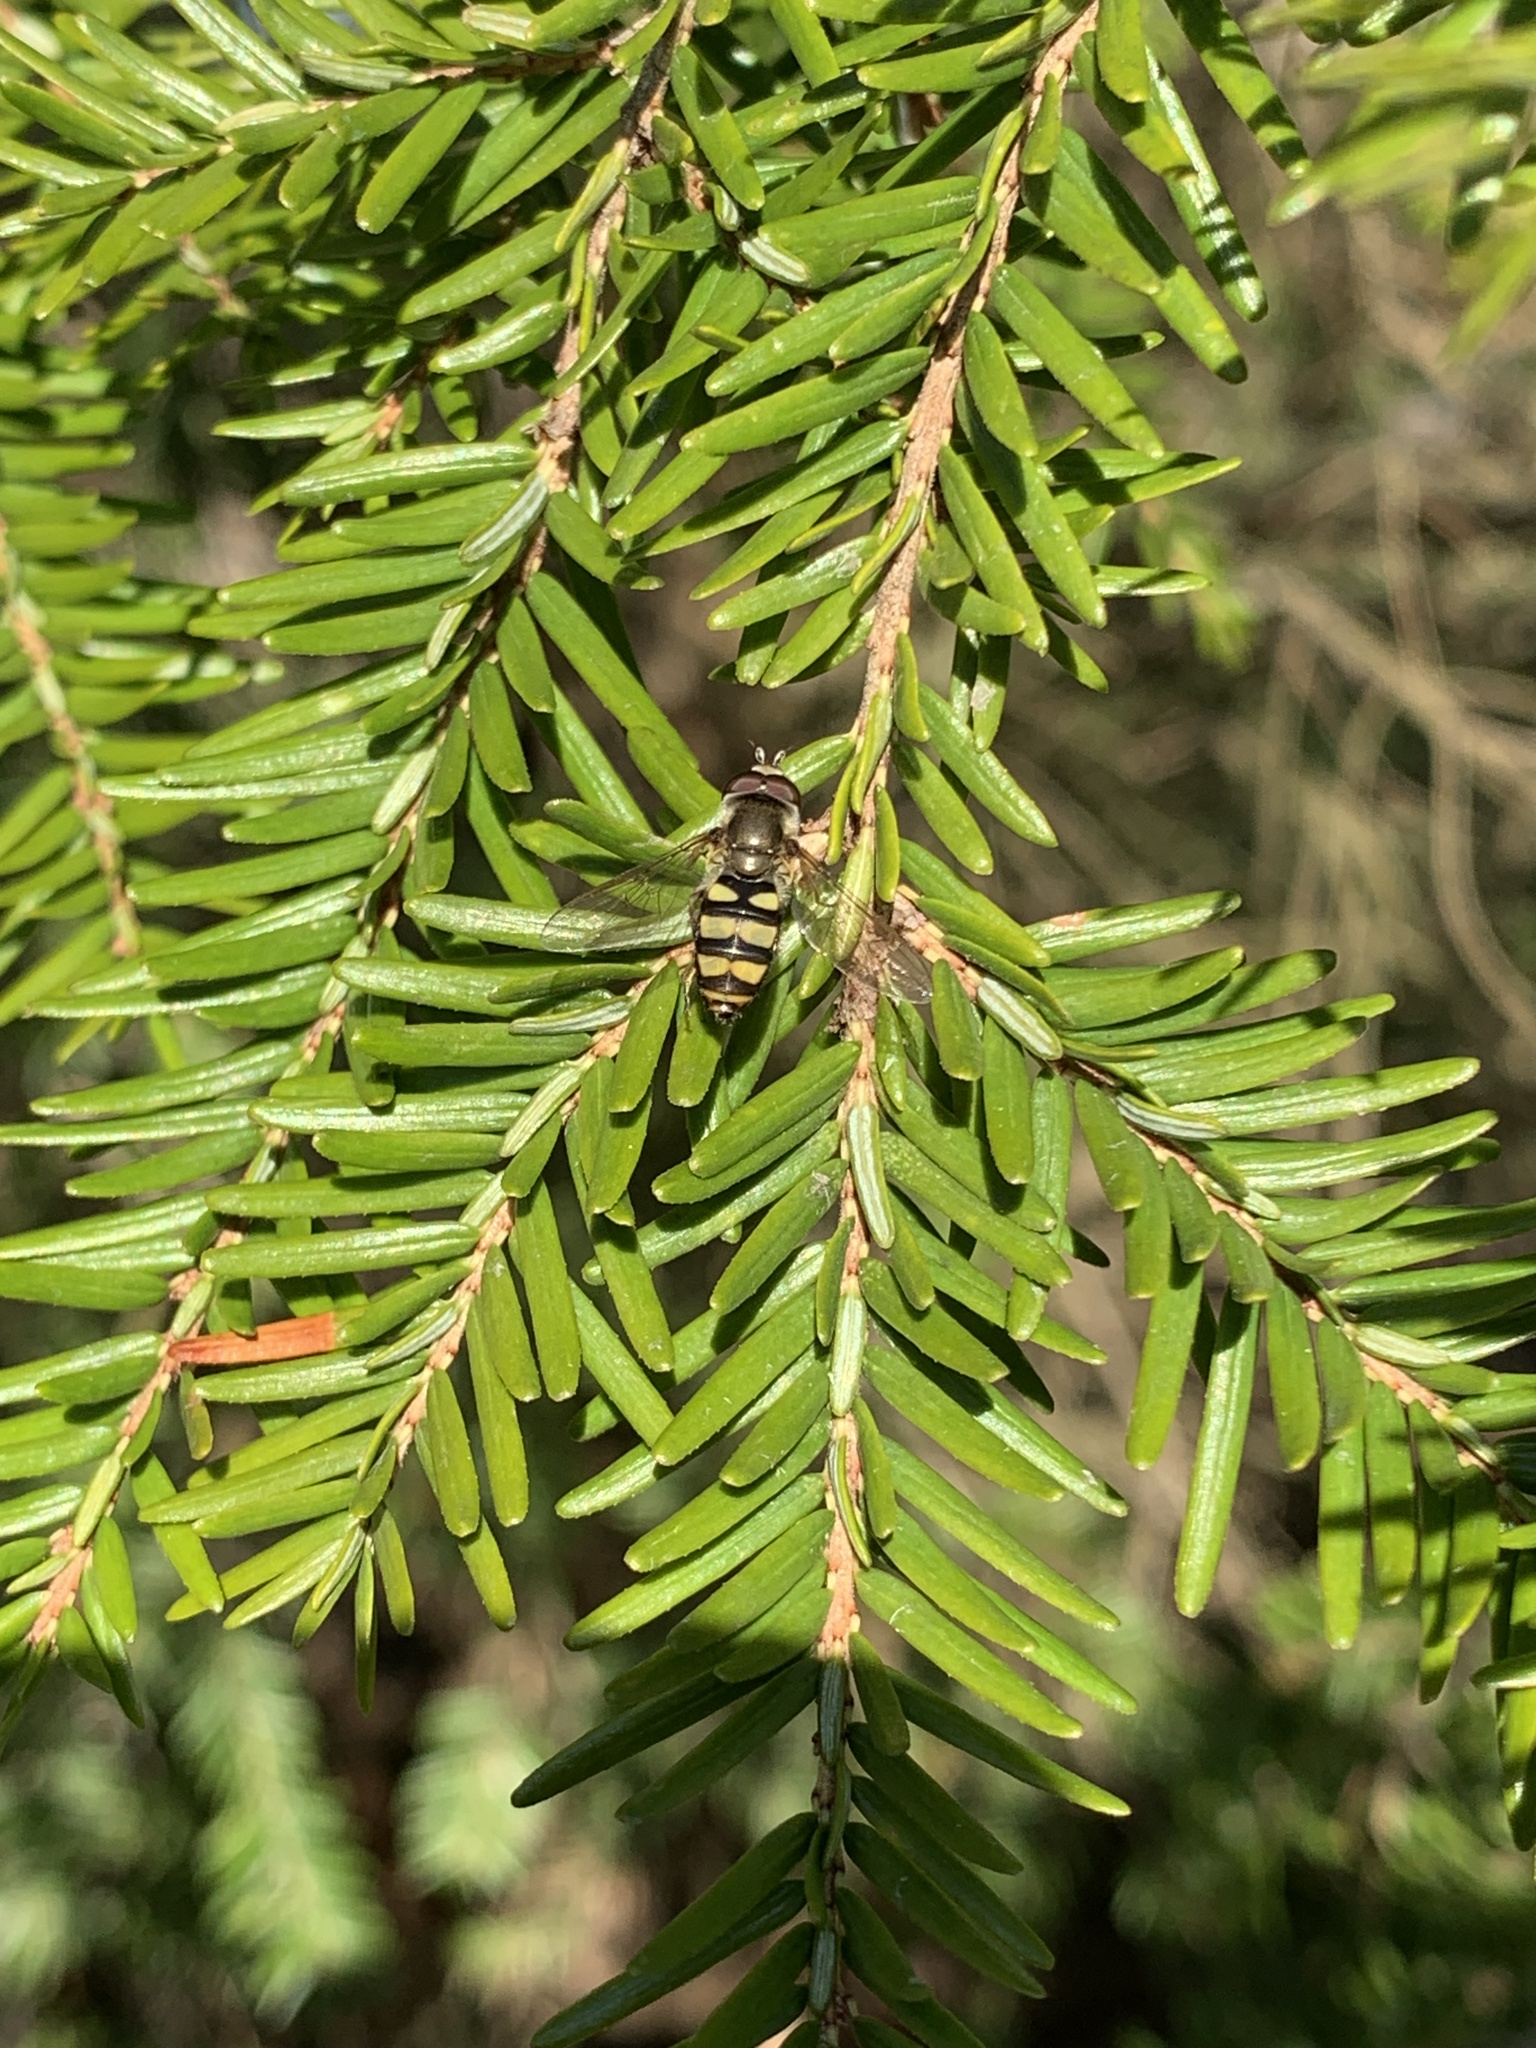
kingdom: Animalia
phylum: Arthropoda
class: Insecta
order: Diptera
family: Syrphidae
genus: Eupeodes
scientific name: Eupeodes
